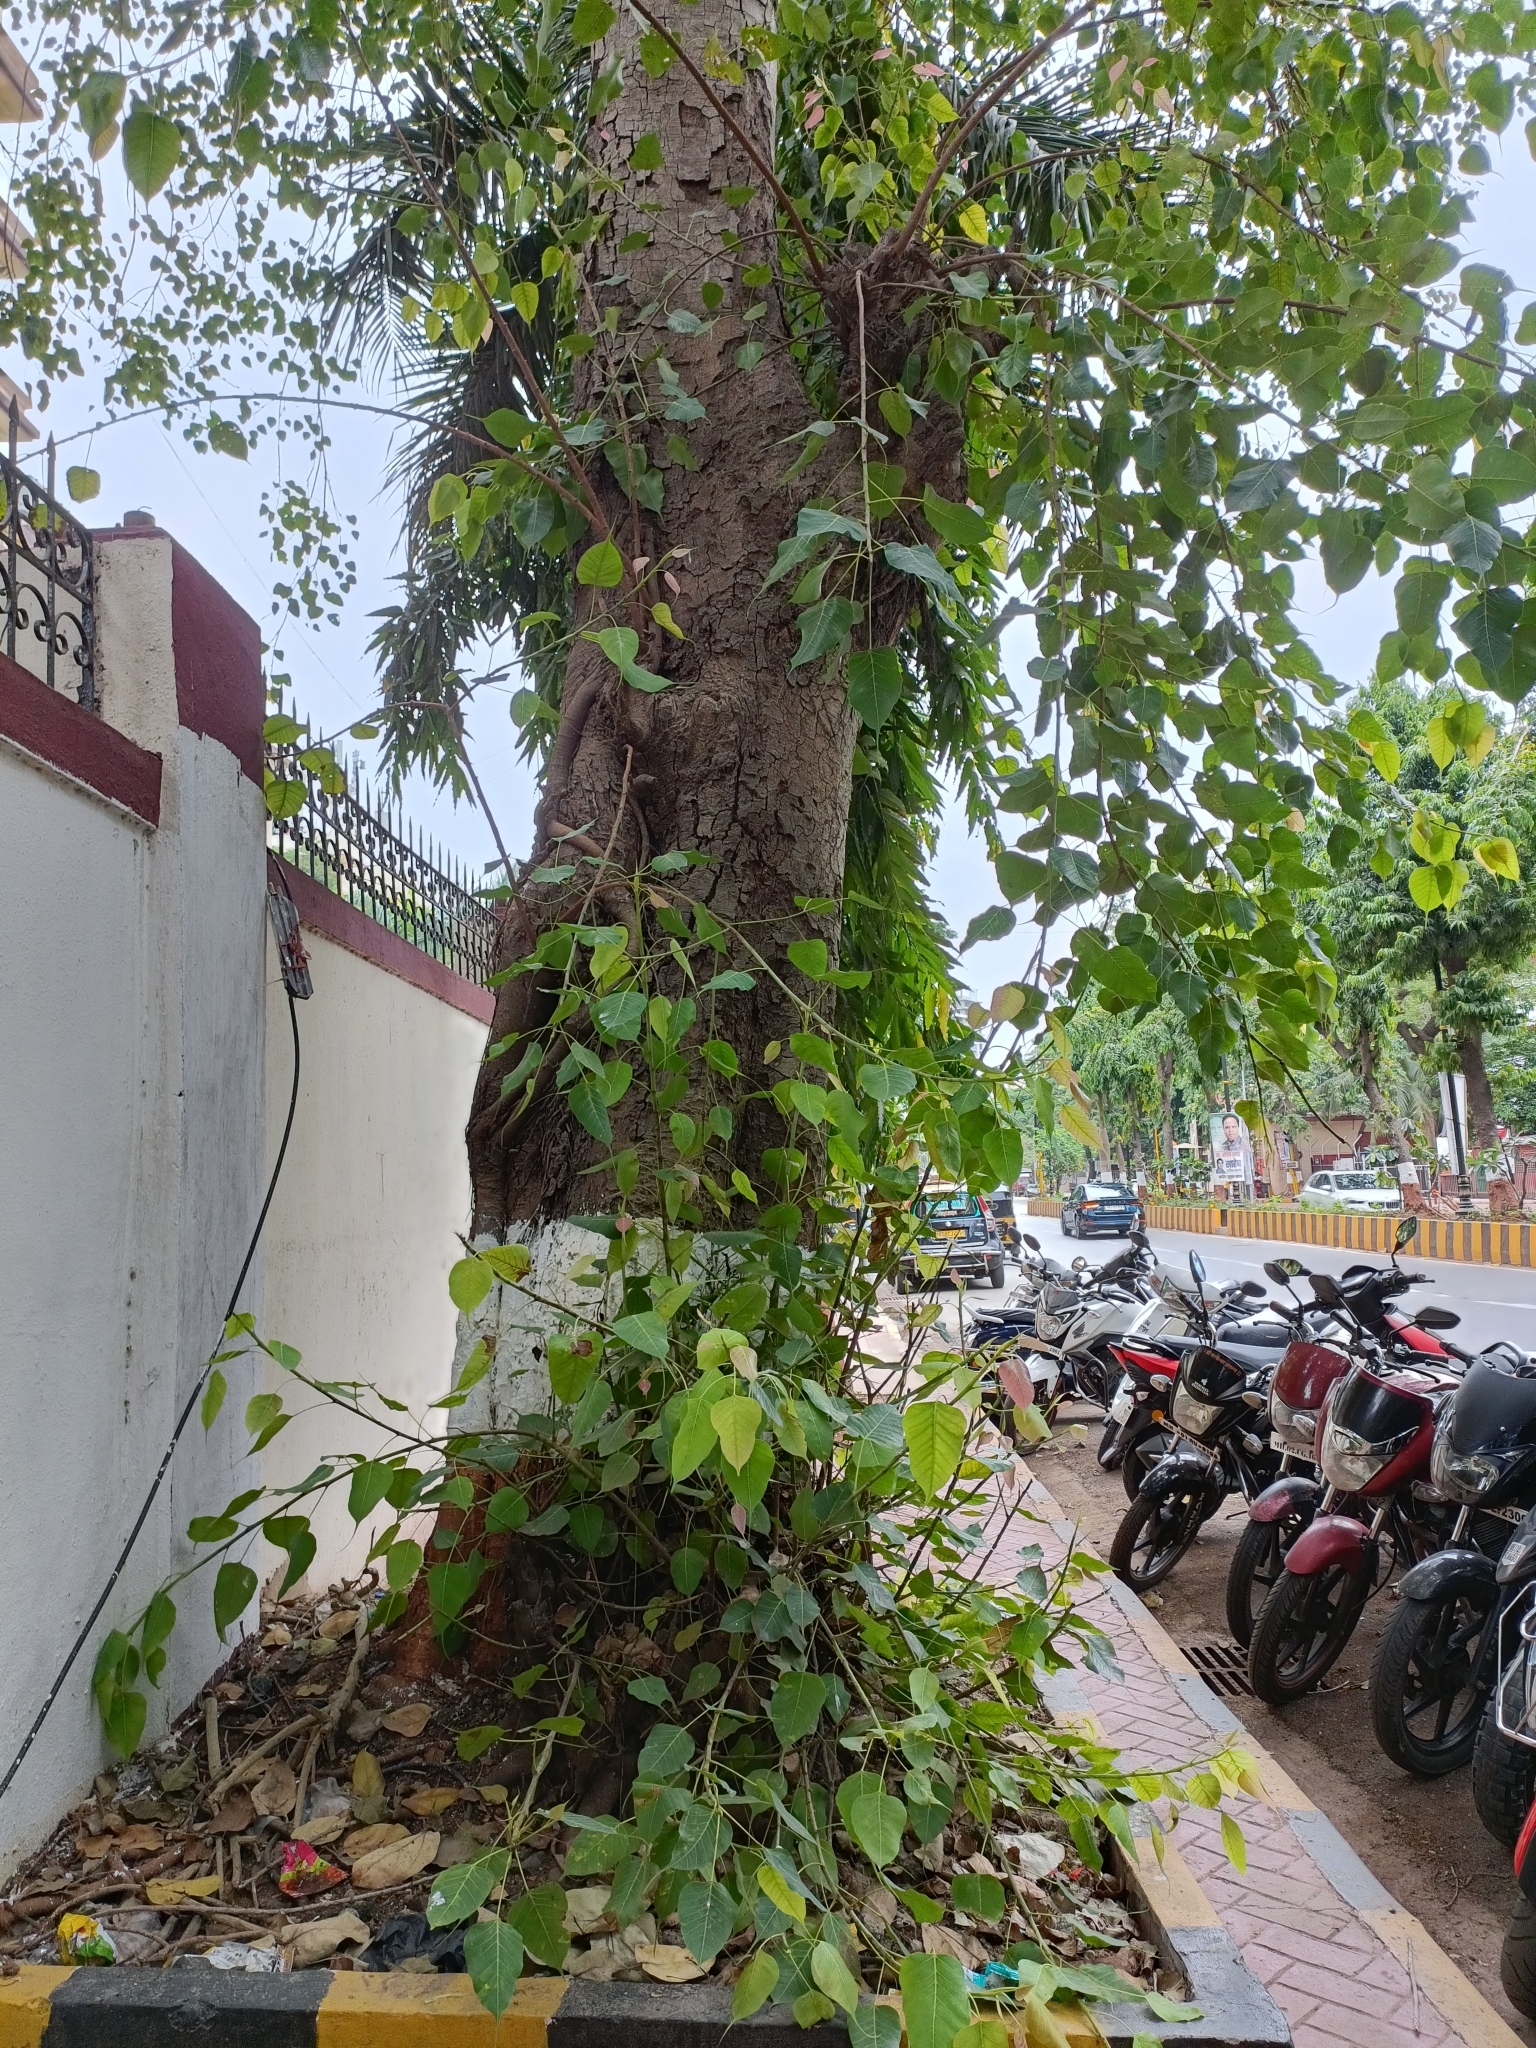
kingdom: Plantae
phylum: Tracheophyta
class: Magnoliopsida
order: Rosales
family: Moraceae
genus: Ficus
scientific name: Ficus religiosa
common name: Bodhi tree
